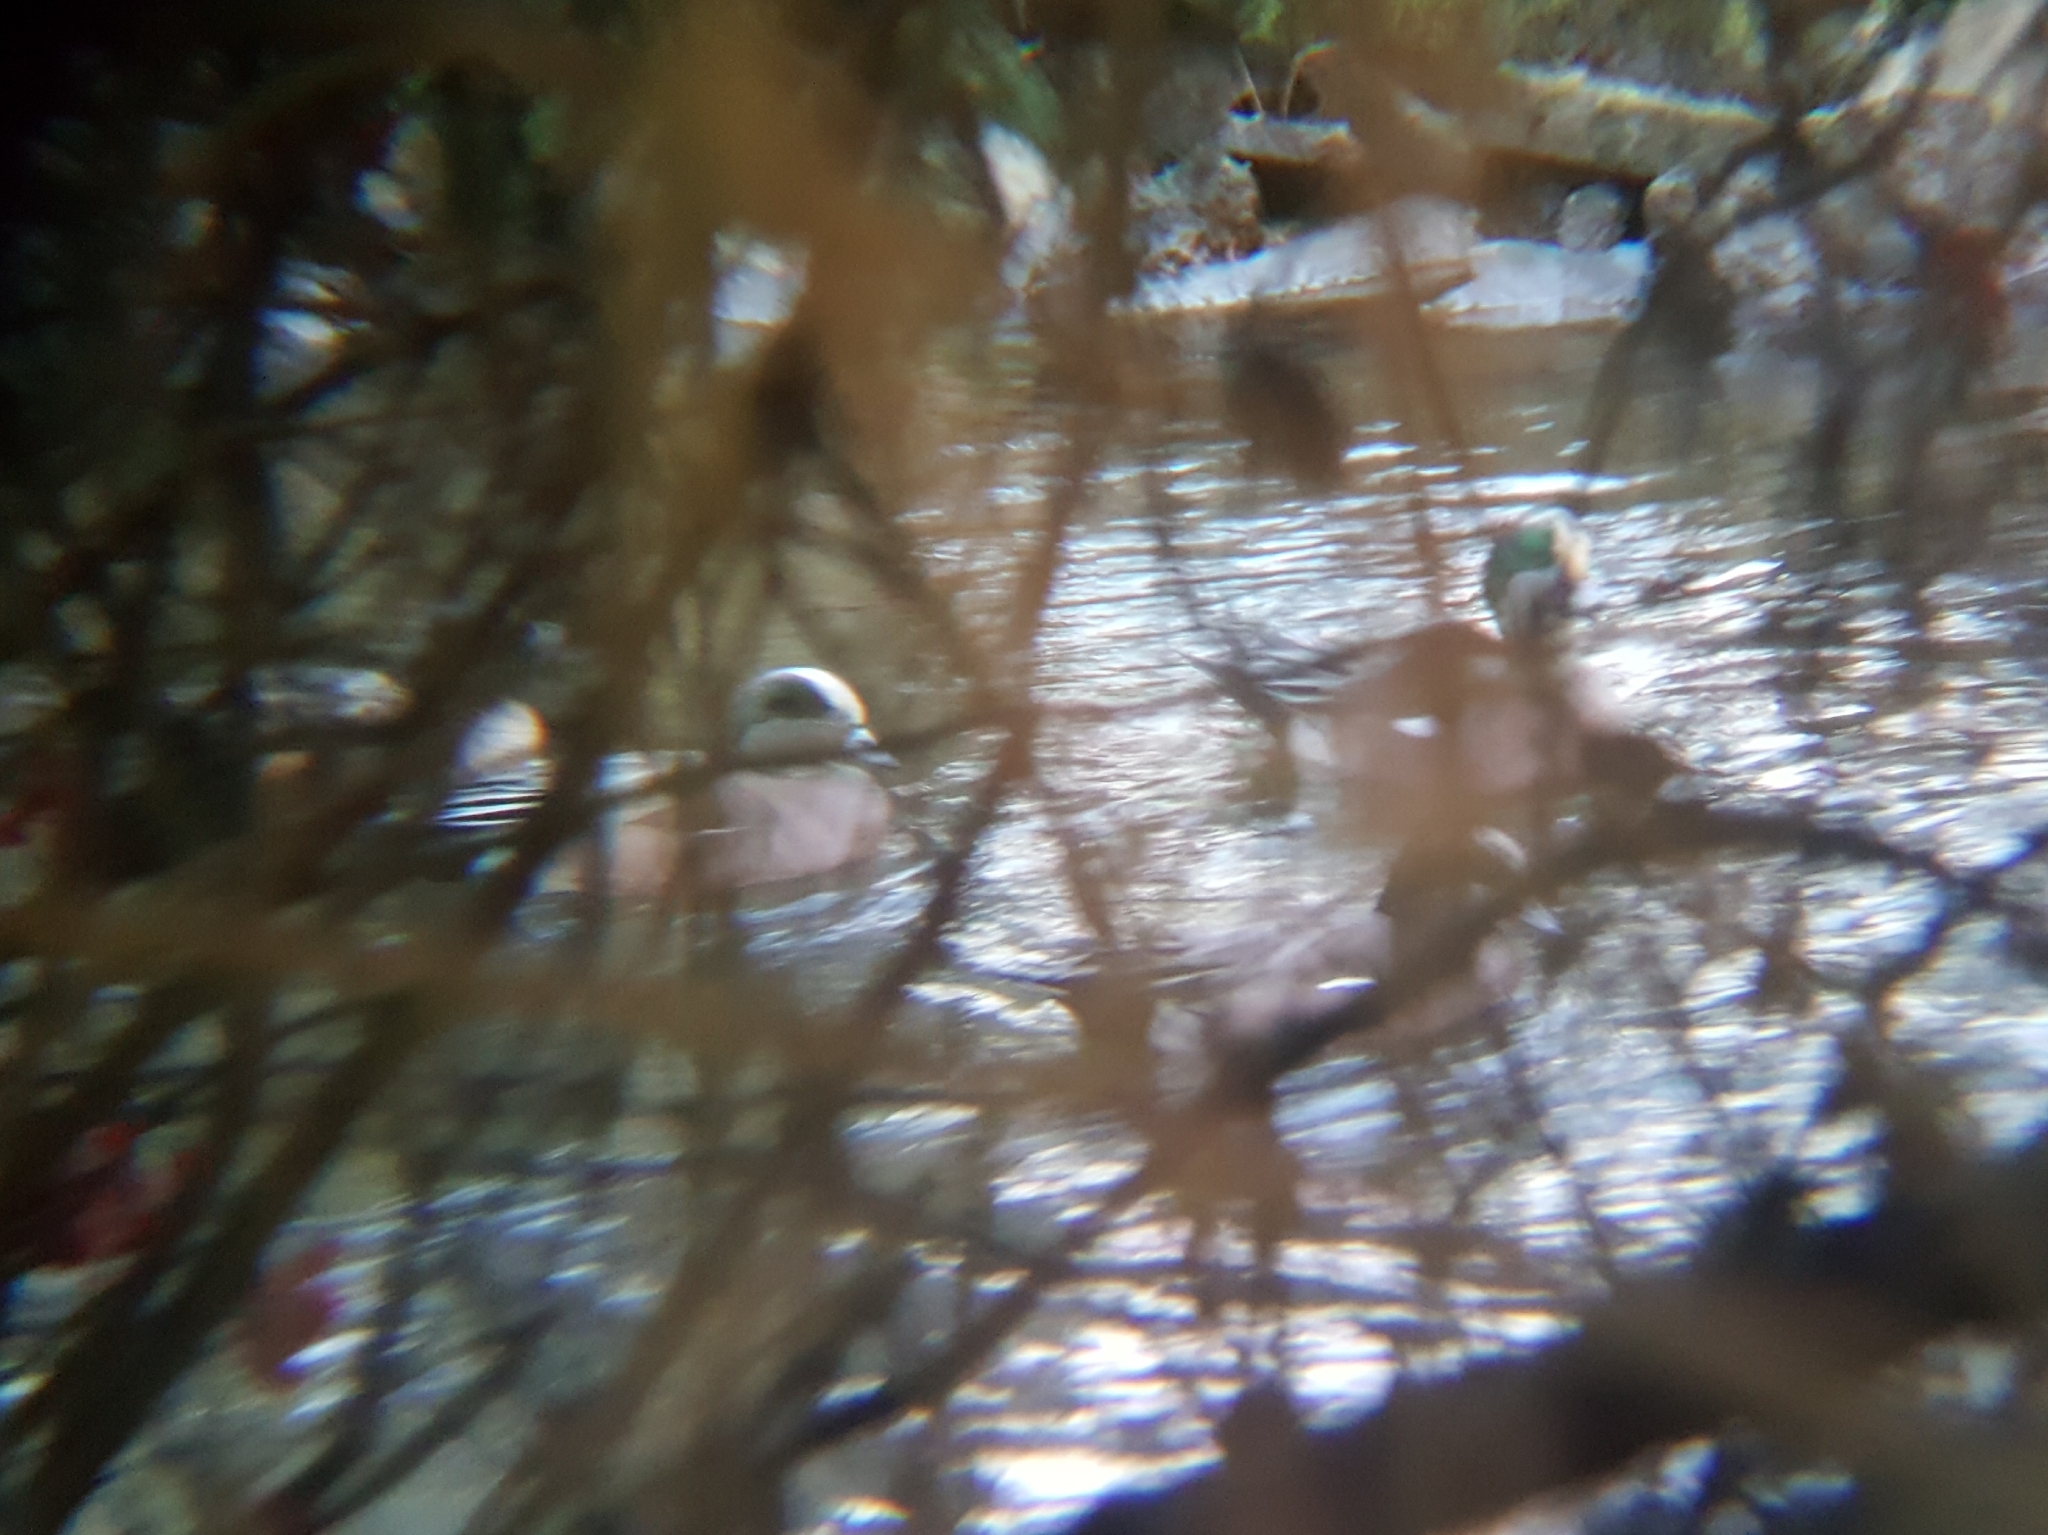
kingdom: Animalia
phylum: Chordata
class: Aves
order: Anseriformes
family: Anatidae
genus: Mareca
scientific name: Mareca americana
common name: American wigeon
